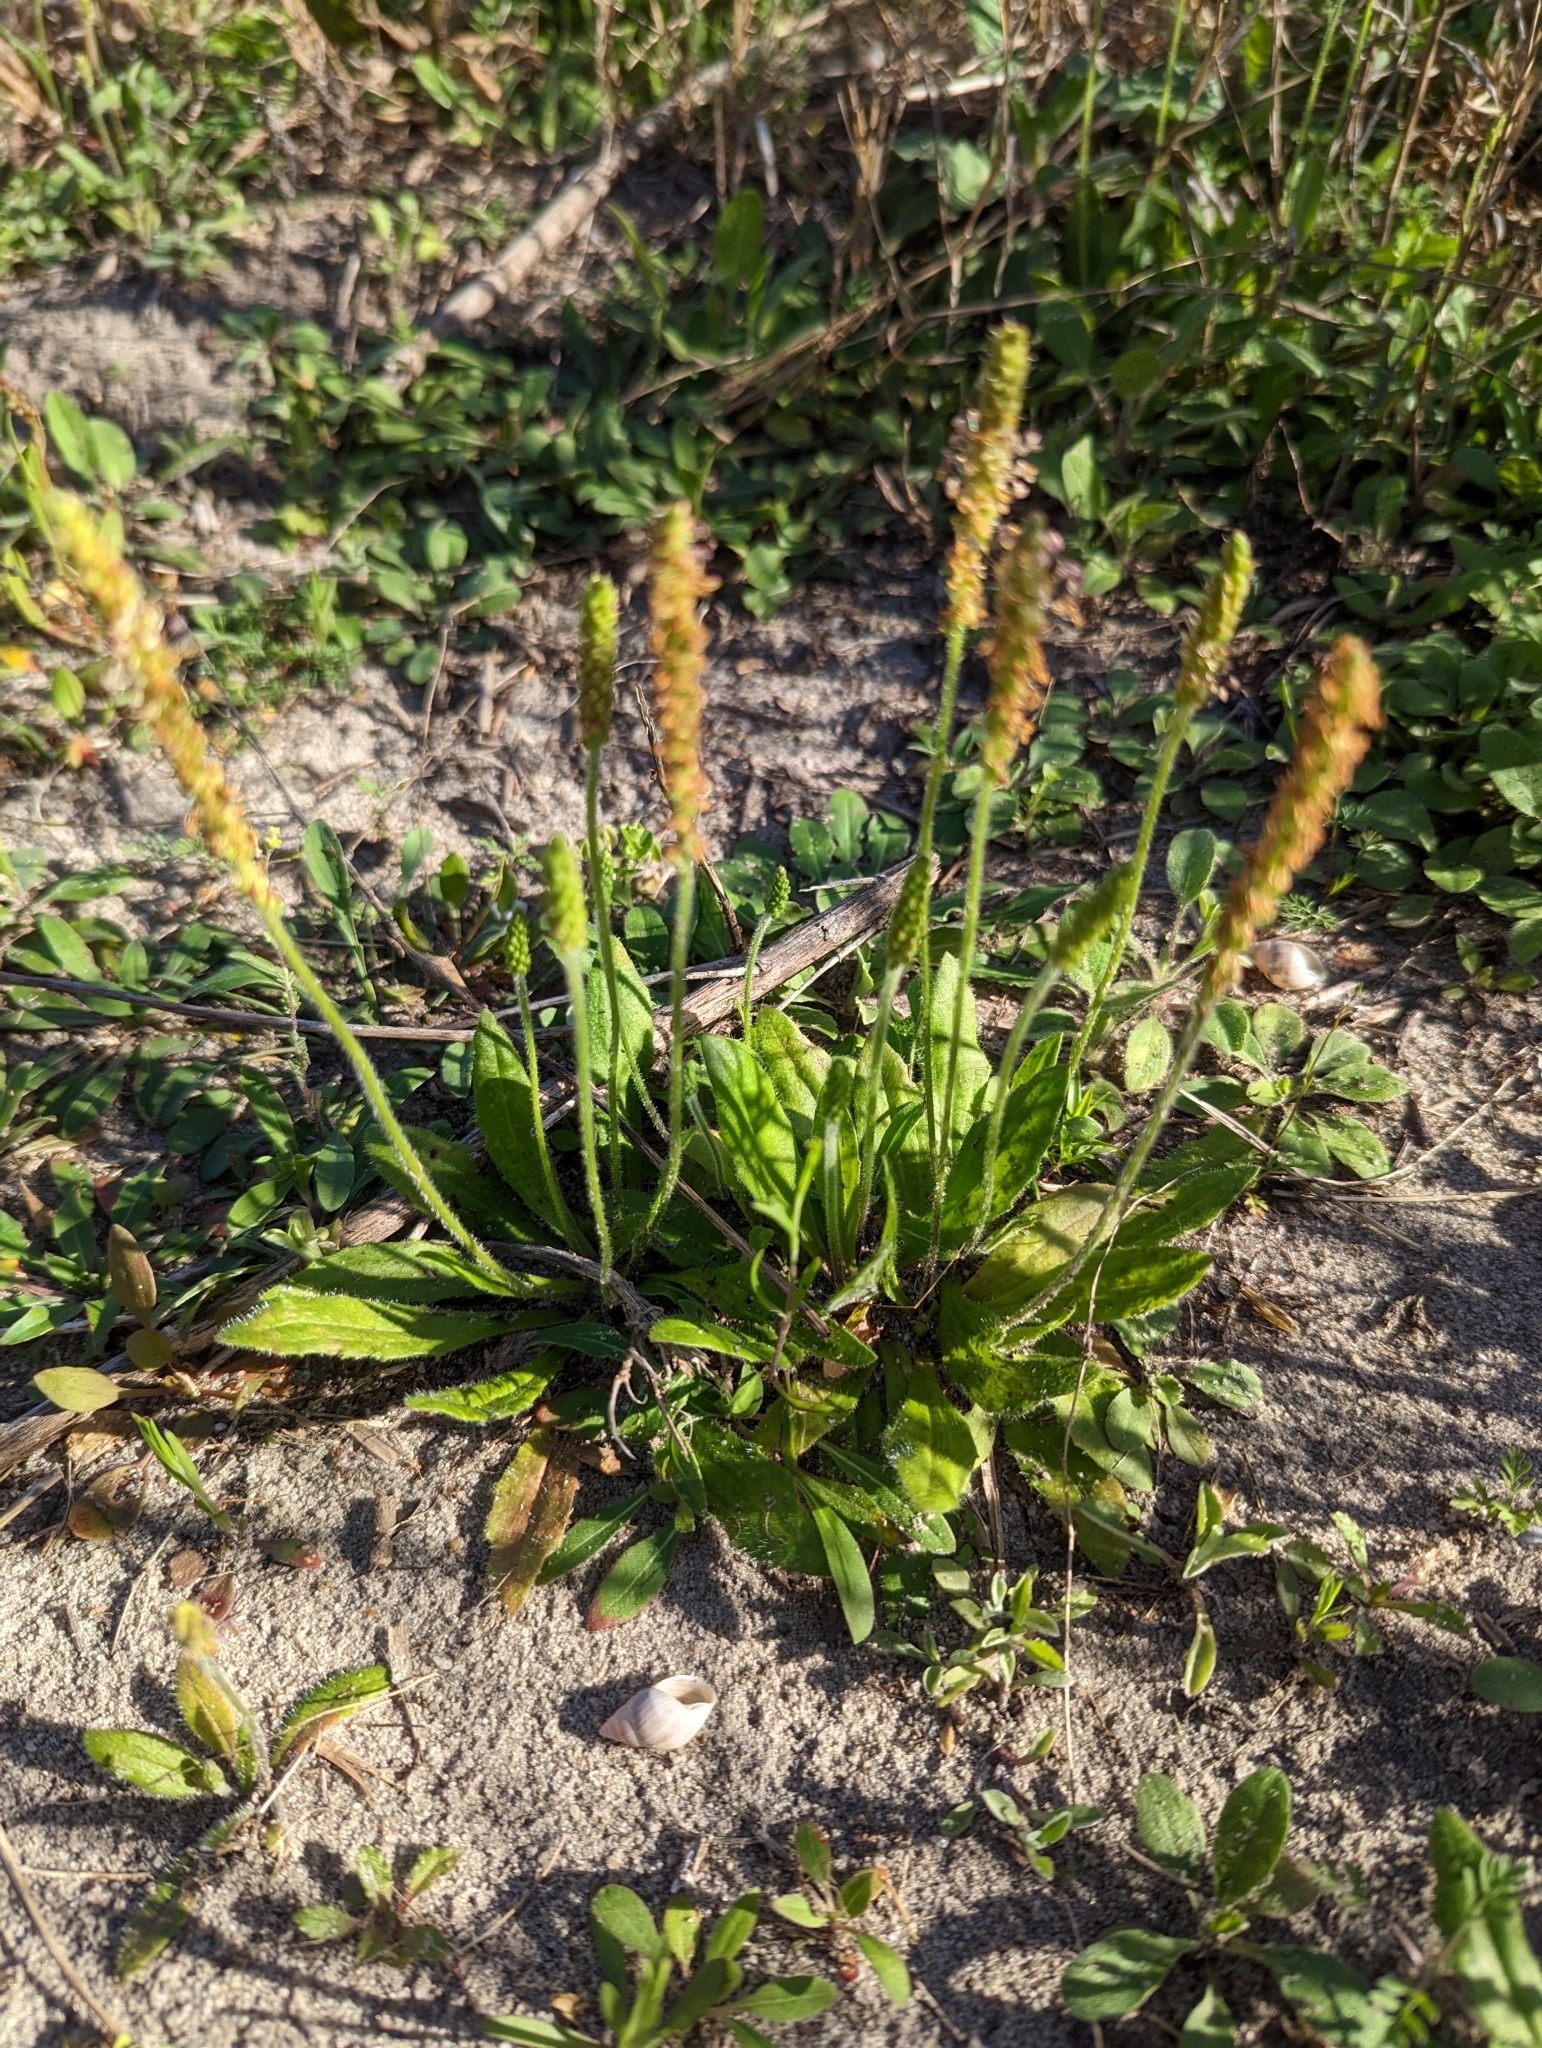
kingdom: Plantae
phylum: Tracheophyta
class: Magnoliopsida
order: Lamiales
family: Plantaginaceae
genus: Plantago
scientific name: Plantago virginica
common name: Hoary plantain
